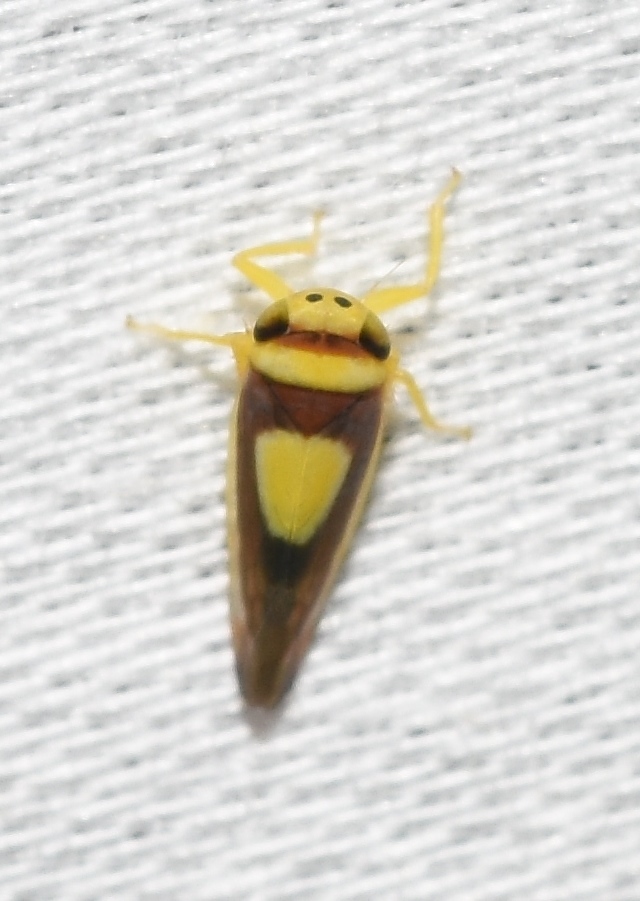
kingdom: Animalia
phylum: Arthropoda
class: Insecta
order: Hemiptera
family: Cicadellidae
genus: Colladonus
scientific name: Colladonus clitellarius
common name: The saddleback leafhopper
